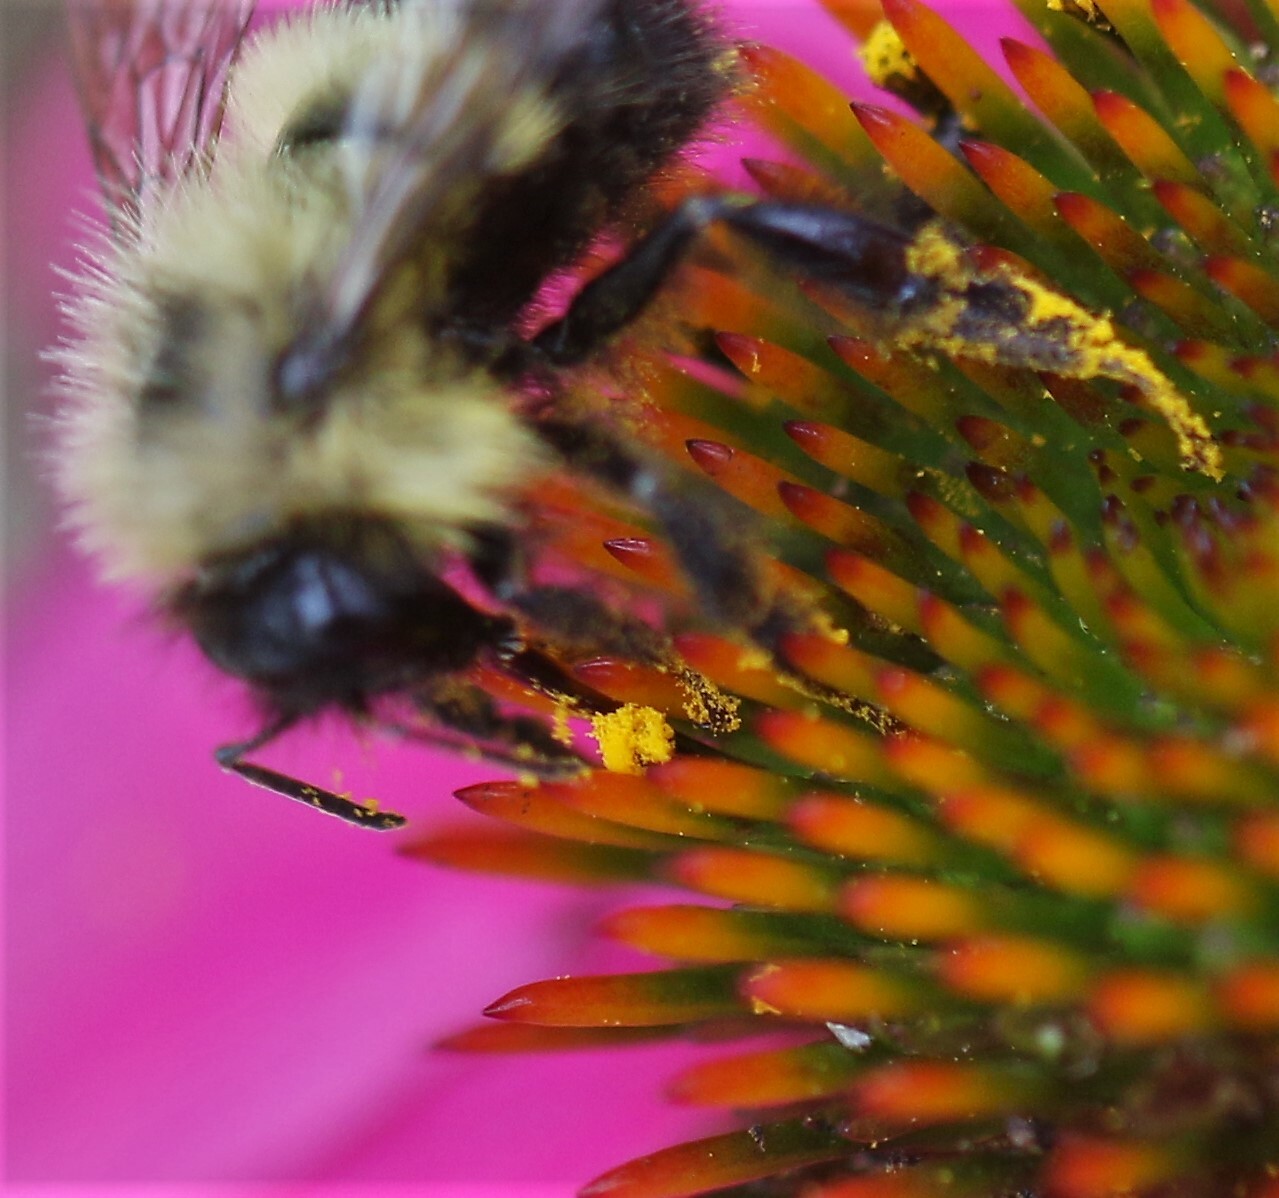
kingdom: Animalia
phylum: Arthropoda
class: Insecta
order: Hymenoptera
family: Apidae
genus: Pyrobombus
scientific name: Pyrobombus
